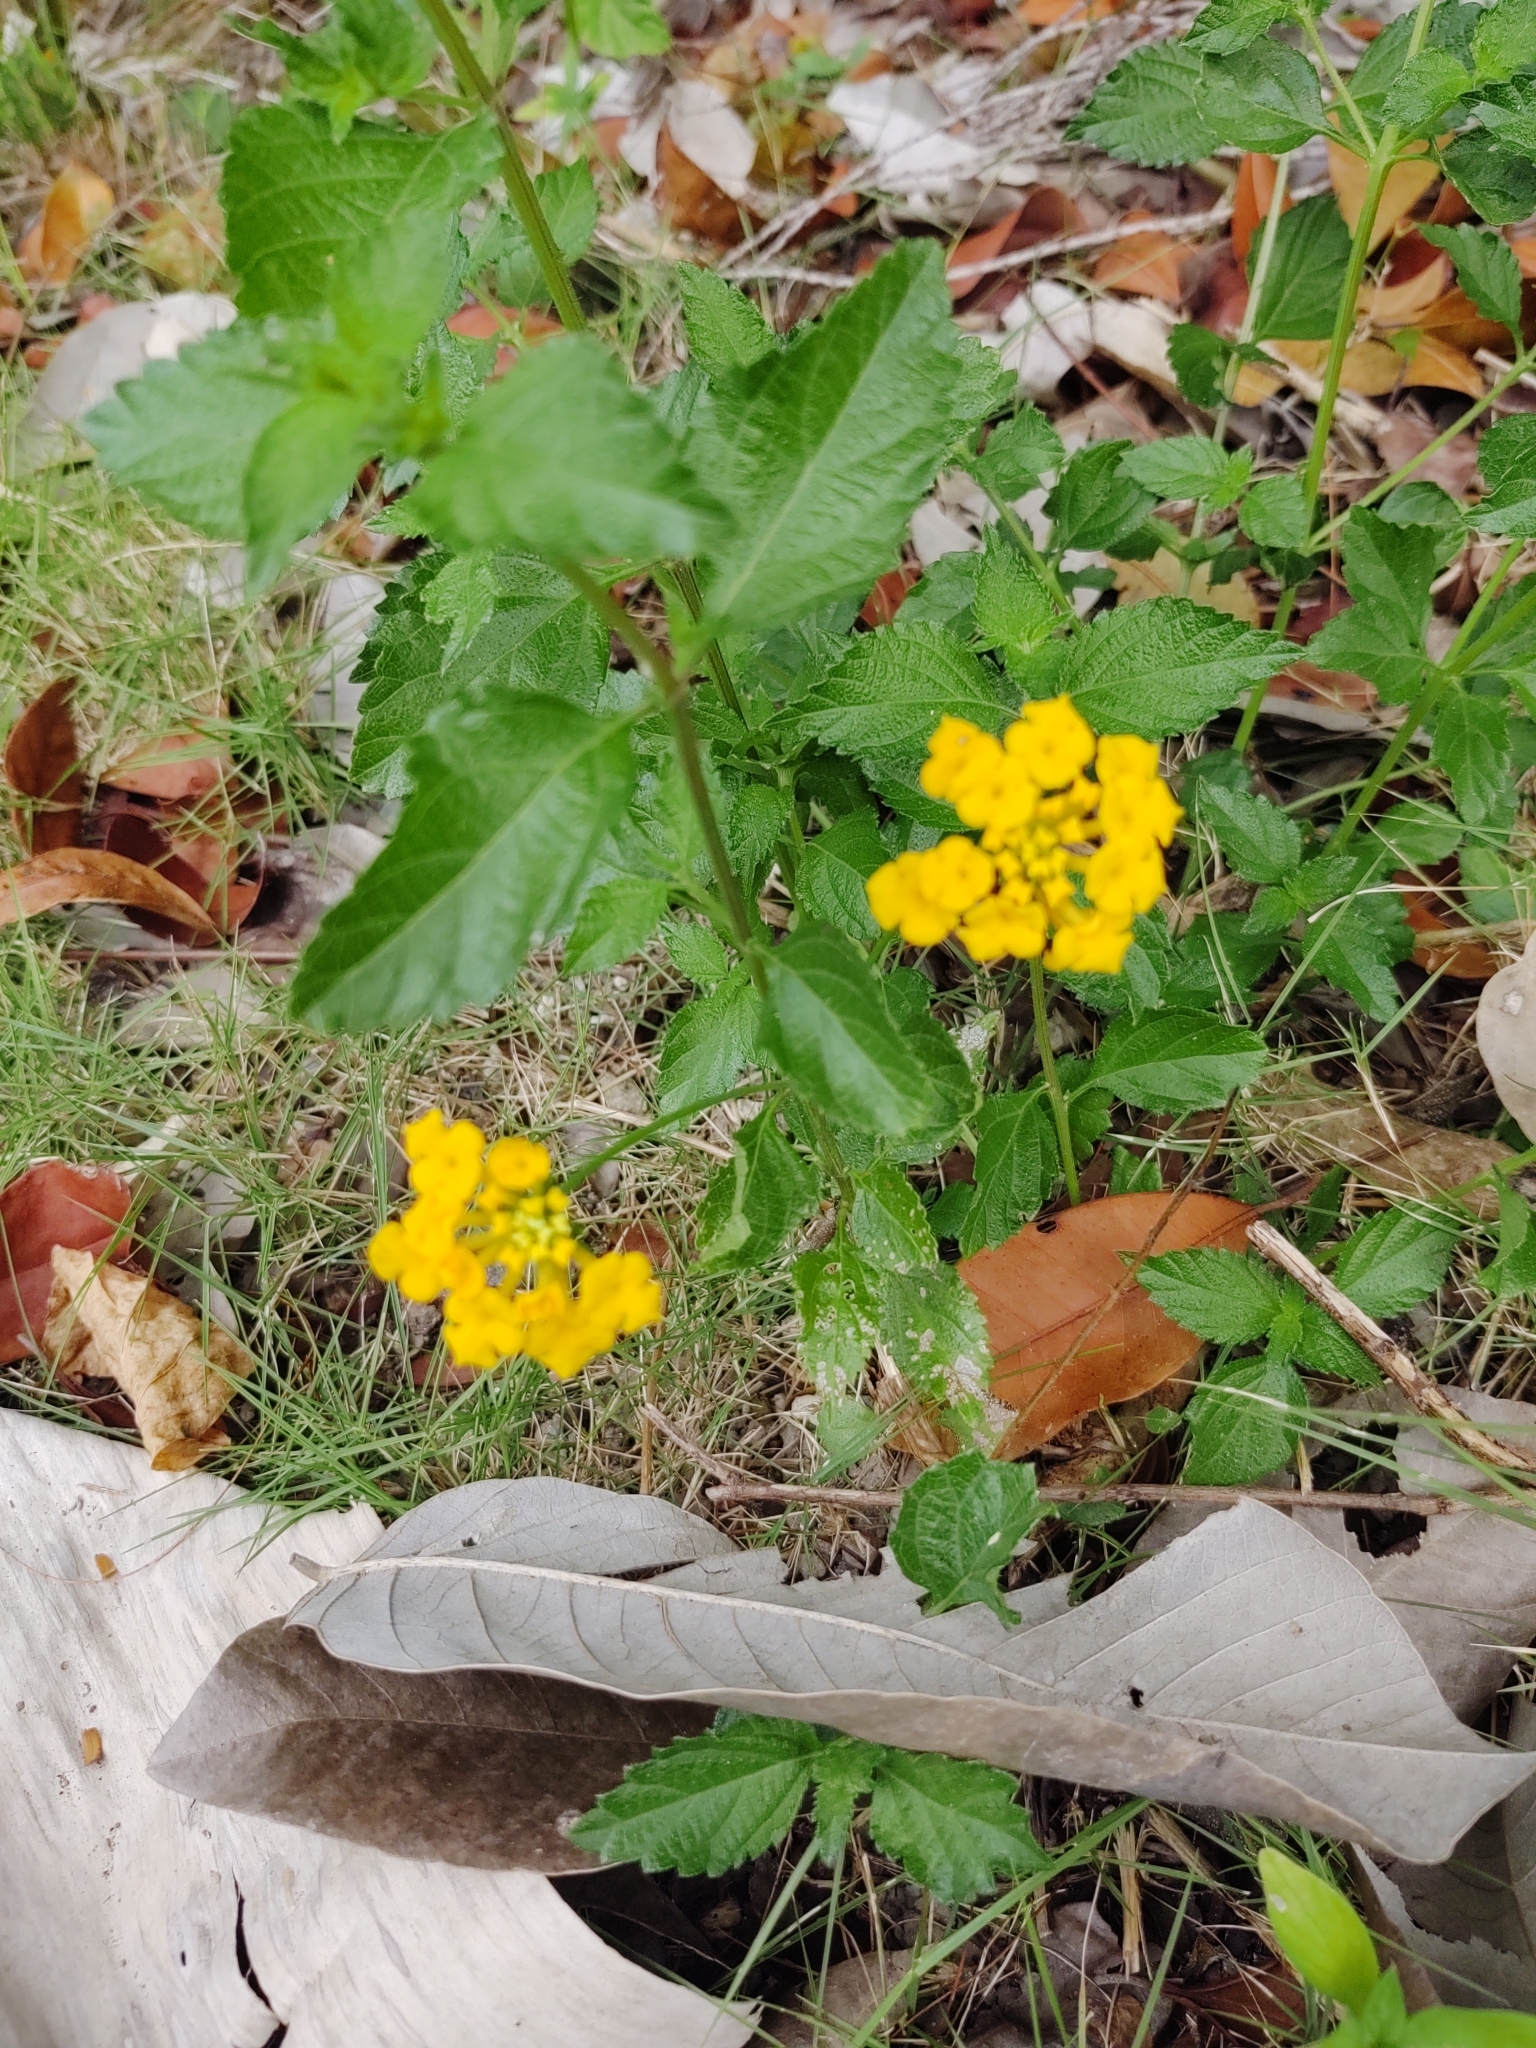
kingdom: Plantae
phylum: Tracheophyta
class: Magnoliopsida
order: Lamiales
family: Verbenaceae
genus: Lantana
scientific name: Lantana polyacantha
